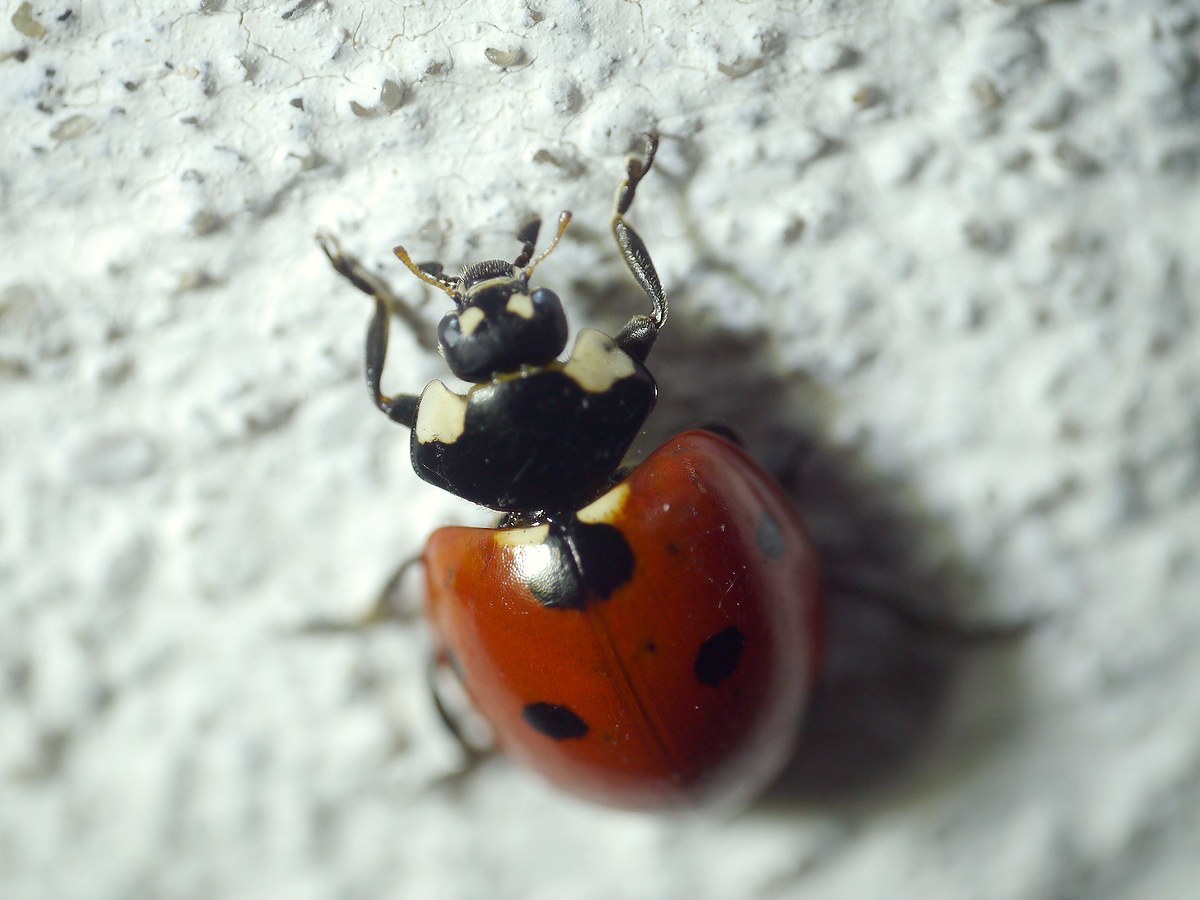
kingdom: Animalia
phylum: Arthropoda
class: Insecta
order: Coleoptera
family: Coccinellidae
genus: Coccinella
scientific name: Coccinella septempunctata
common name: Sevenspotted lady beetle
